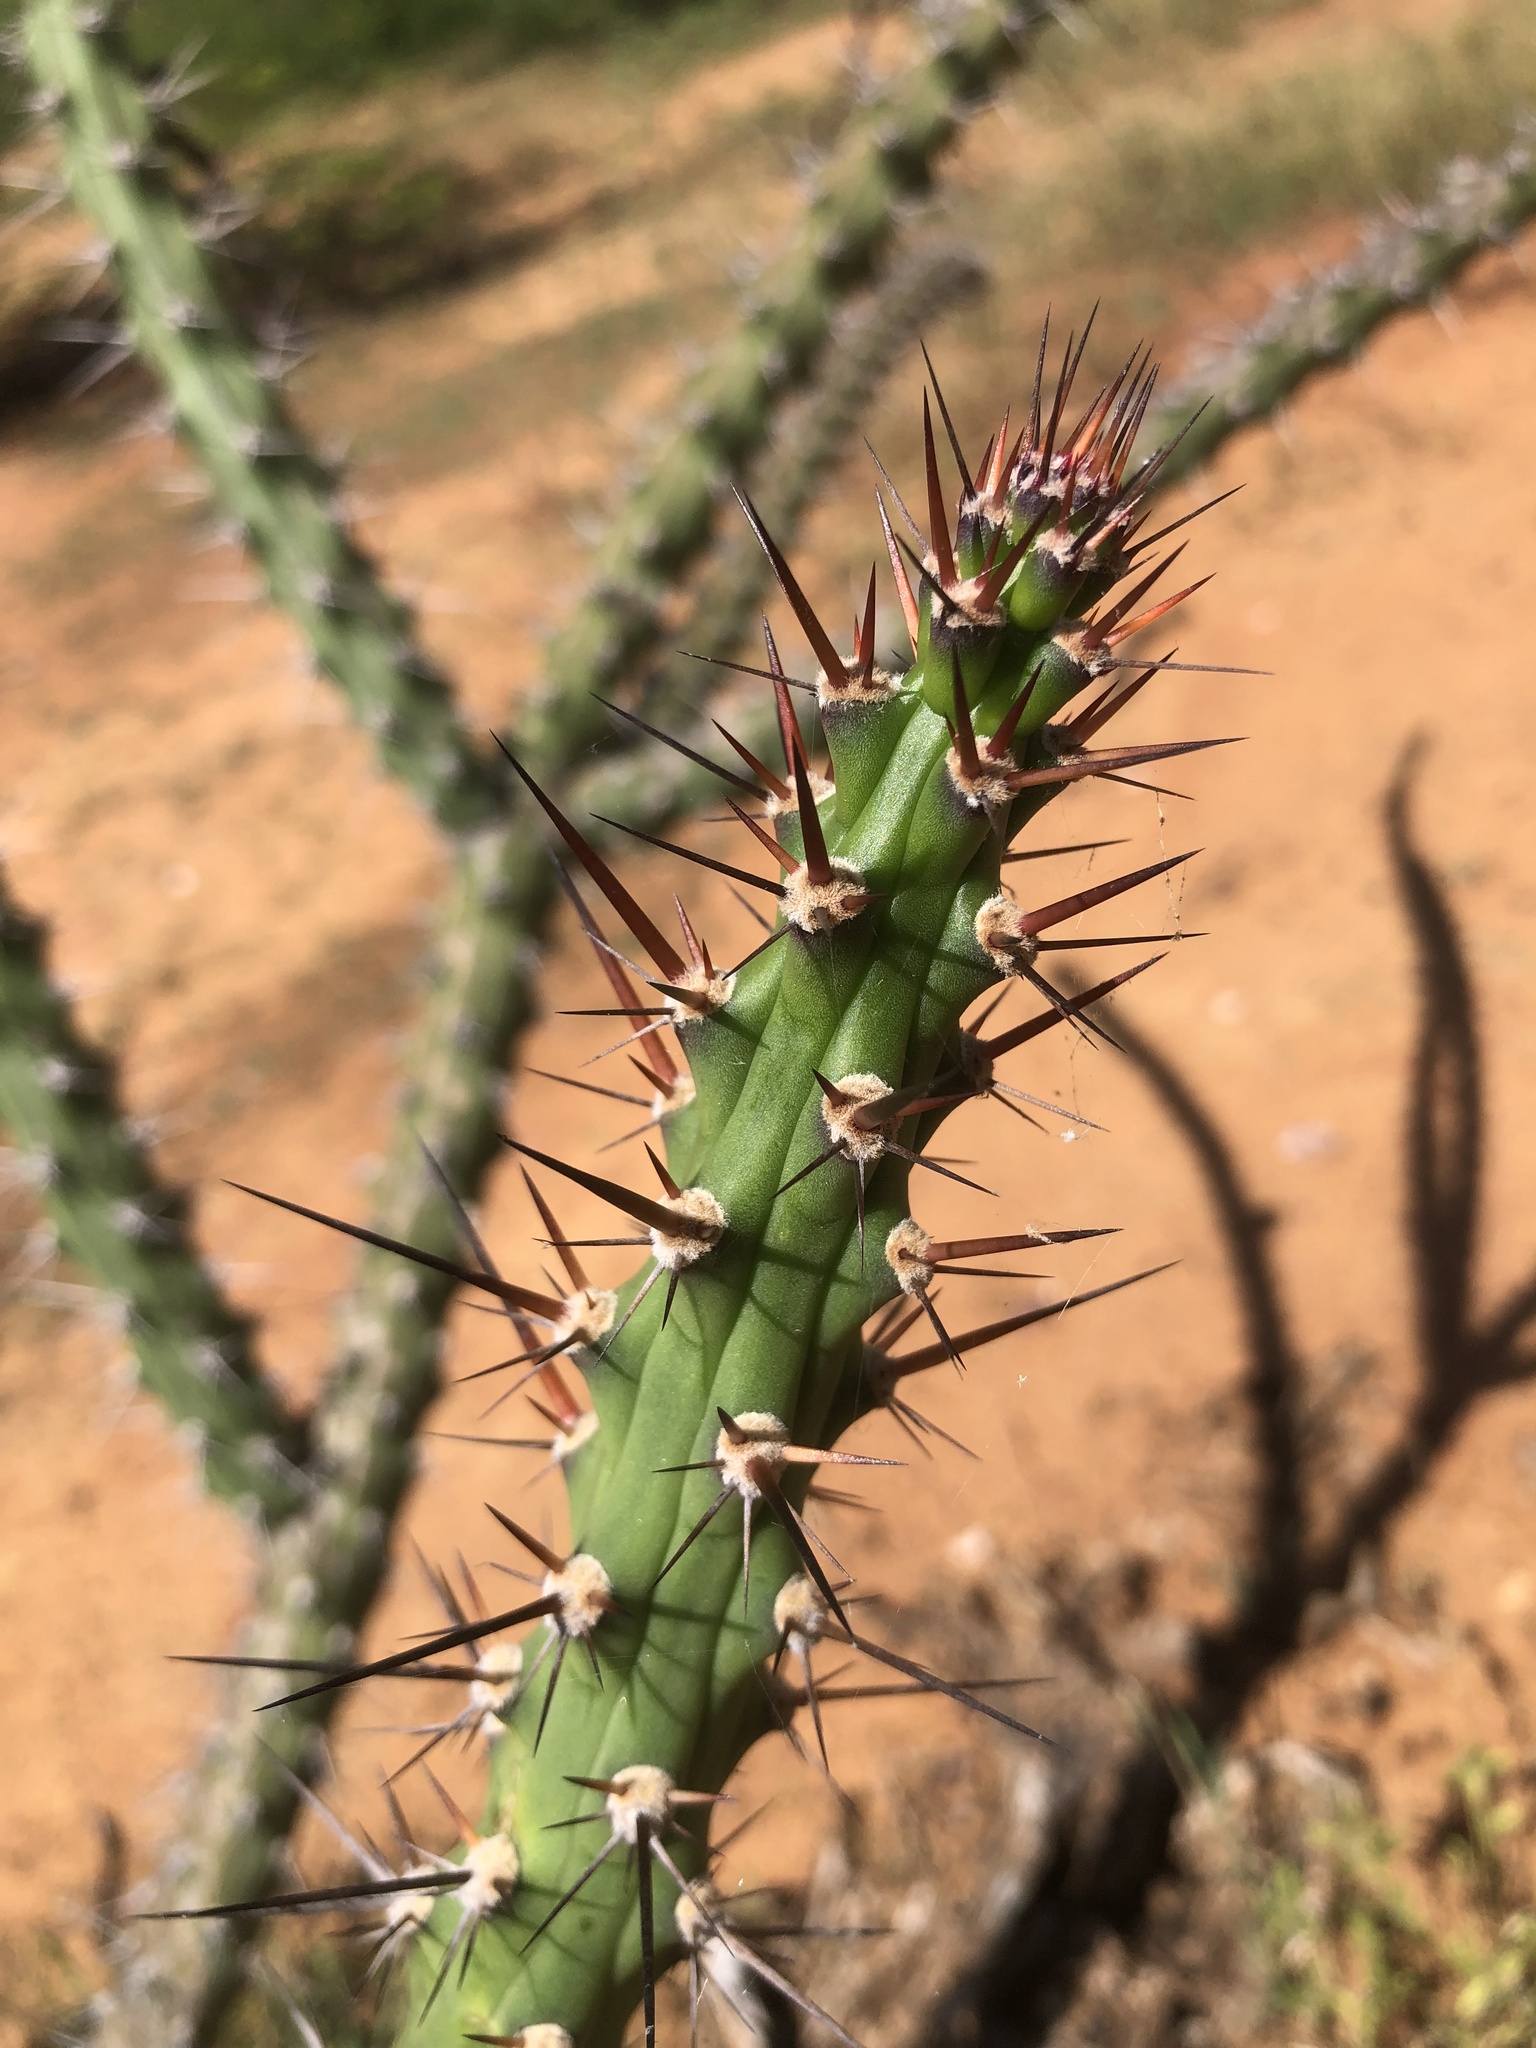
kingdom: Plantae
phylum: Tracheophyta
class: Magnoliopsida
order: Caryophyllales
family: Cactaceae
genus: Harrisia
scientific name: Harrisia adscendens
